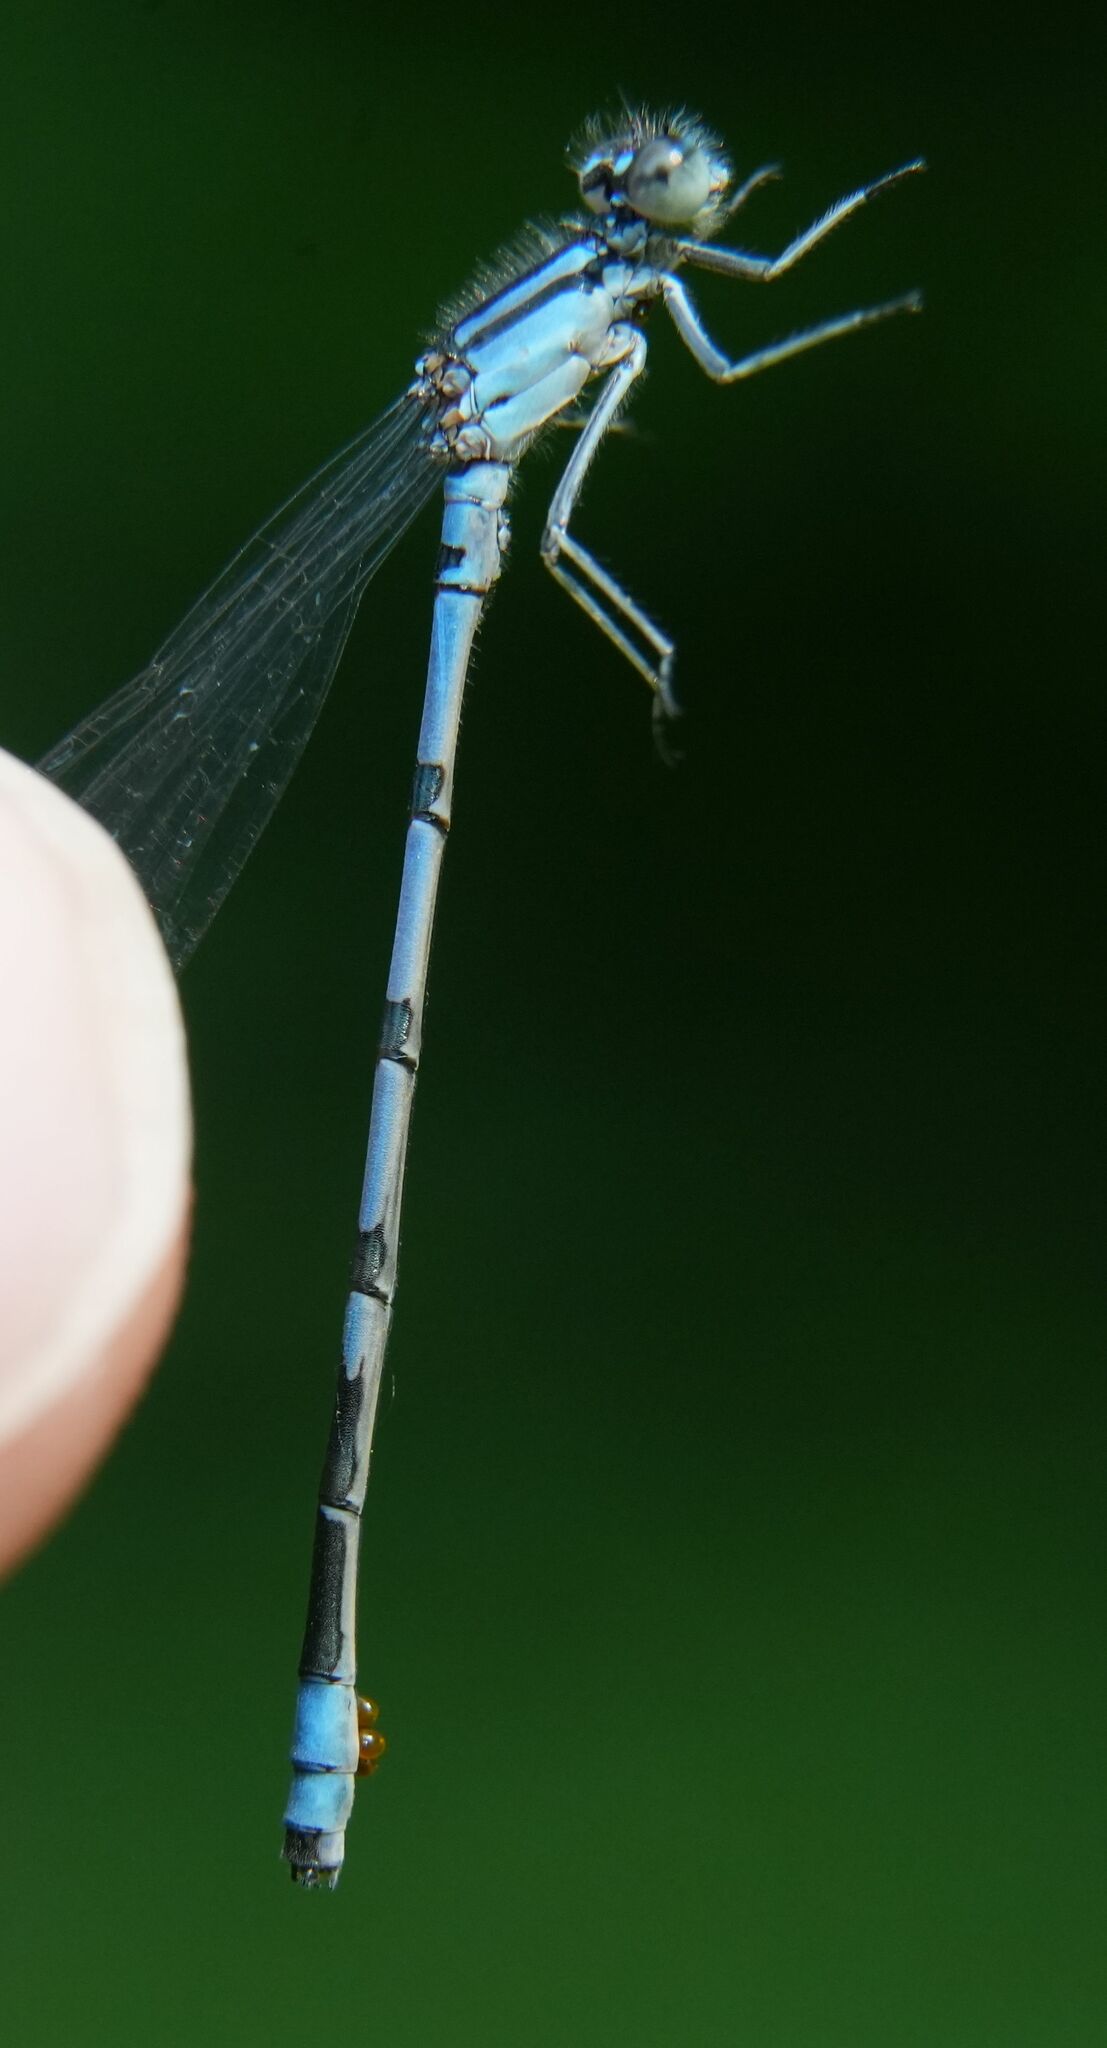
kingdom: Animalia
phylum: Arthropoda
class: Insecta
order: Odonata
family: Coenagrionidae
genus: Enallagma
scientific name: Enallagma ebrium
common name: Marsh bluet
